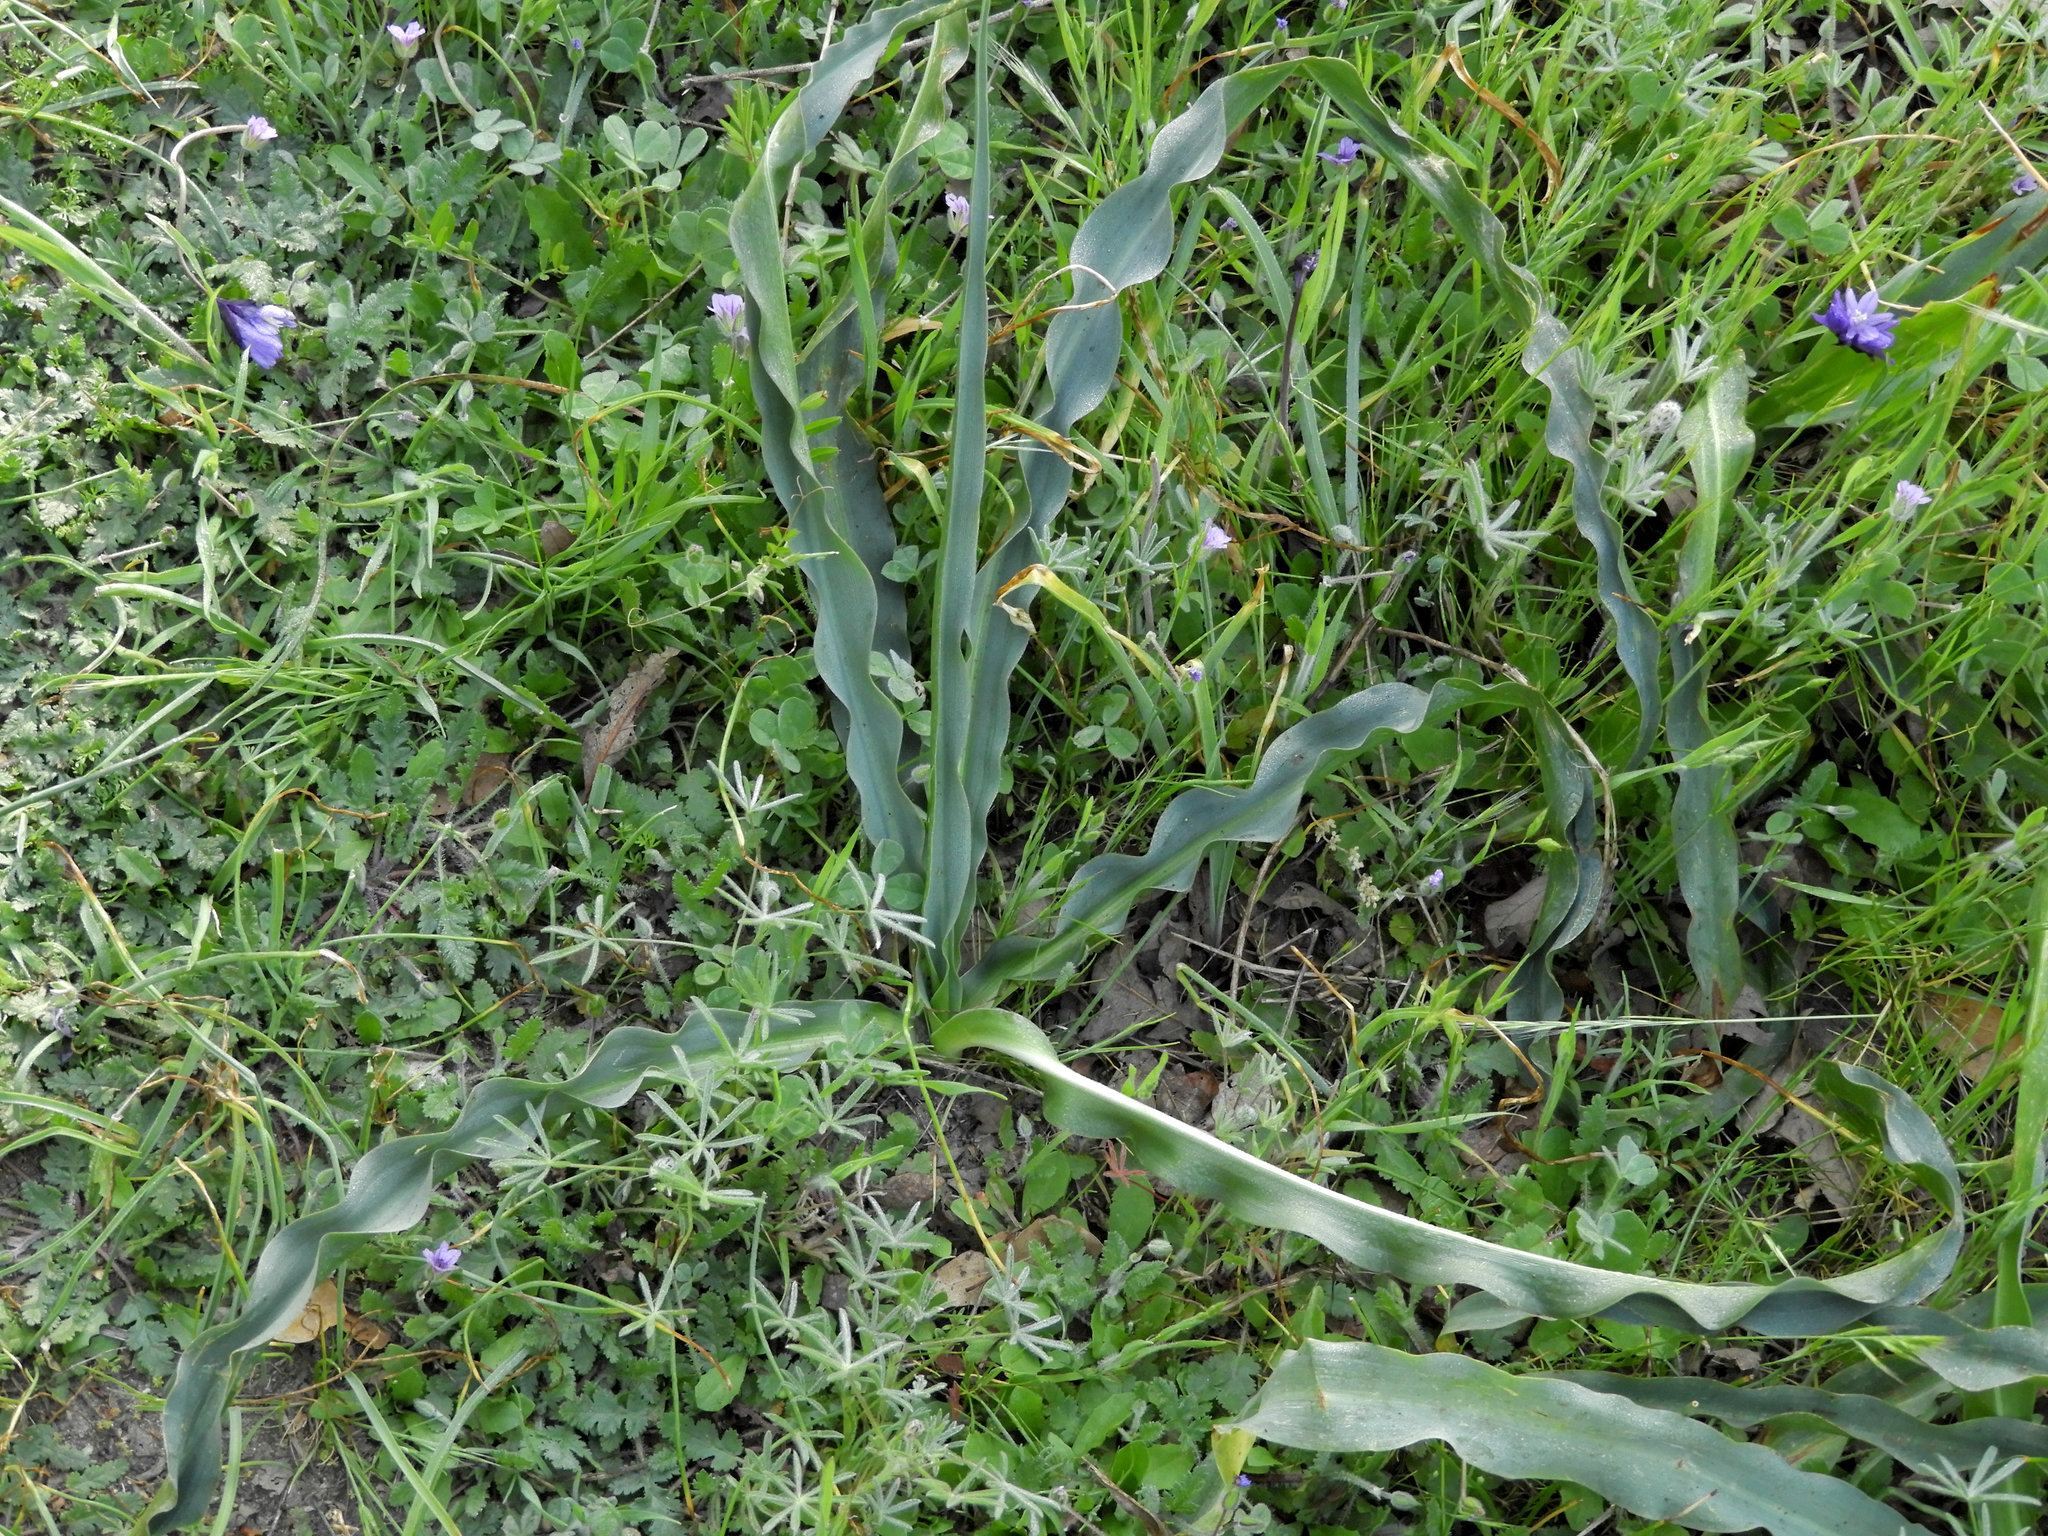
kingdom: Plantae
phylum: Tracheophyta
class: Liliopsida
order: Asparagales
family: Asparagaceae
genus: Chlorogalum
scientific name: Chlorogalum pomeridianum
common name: Amole
